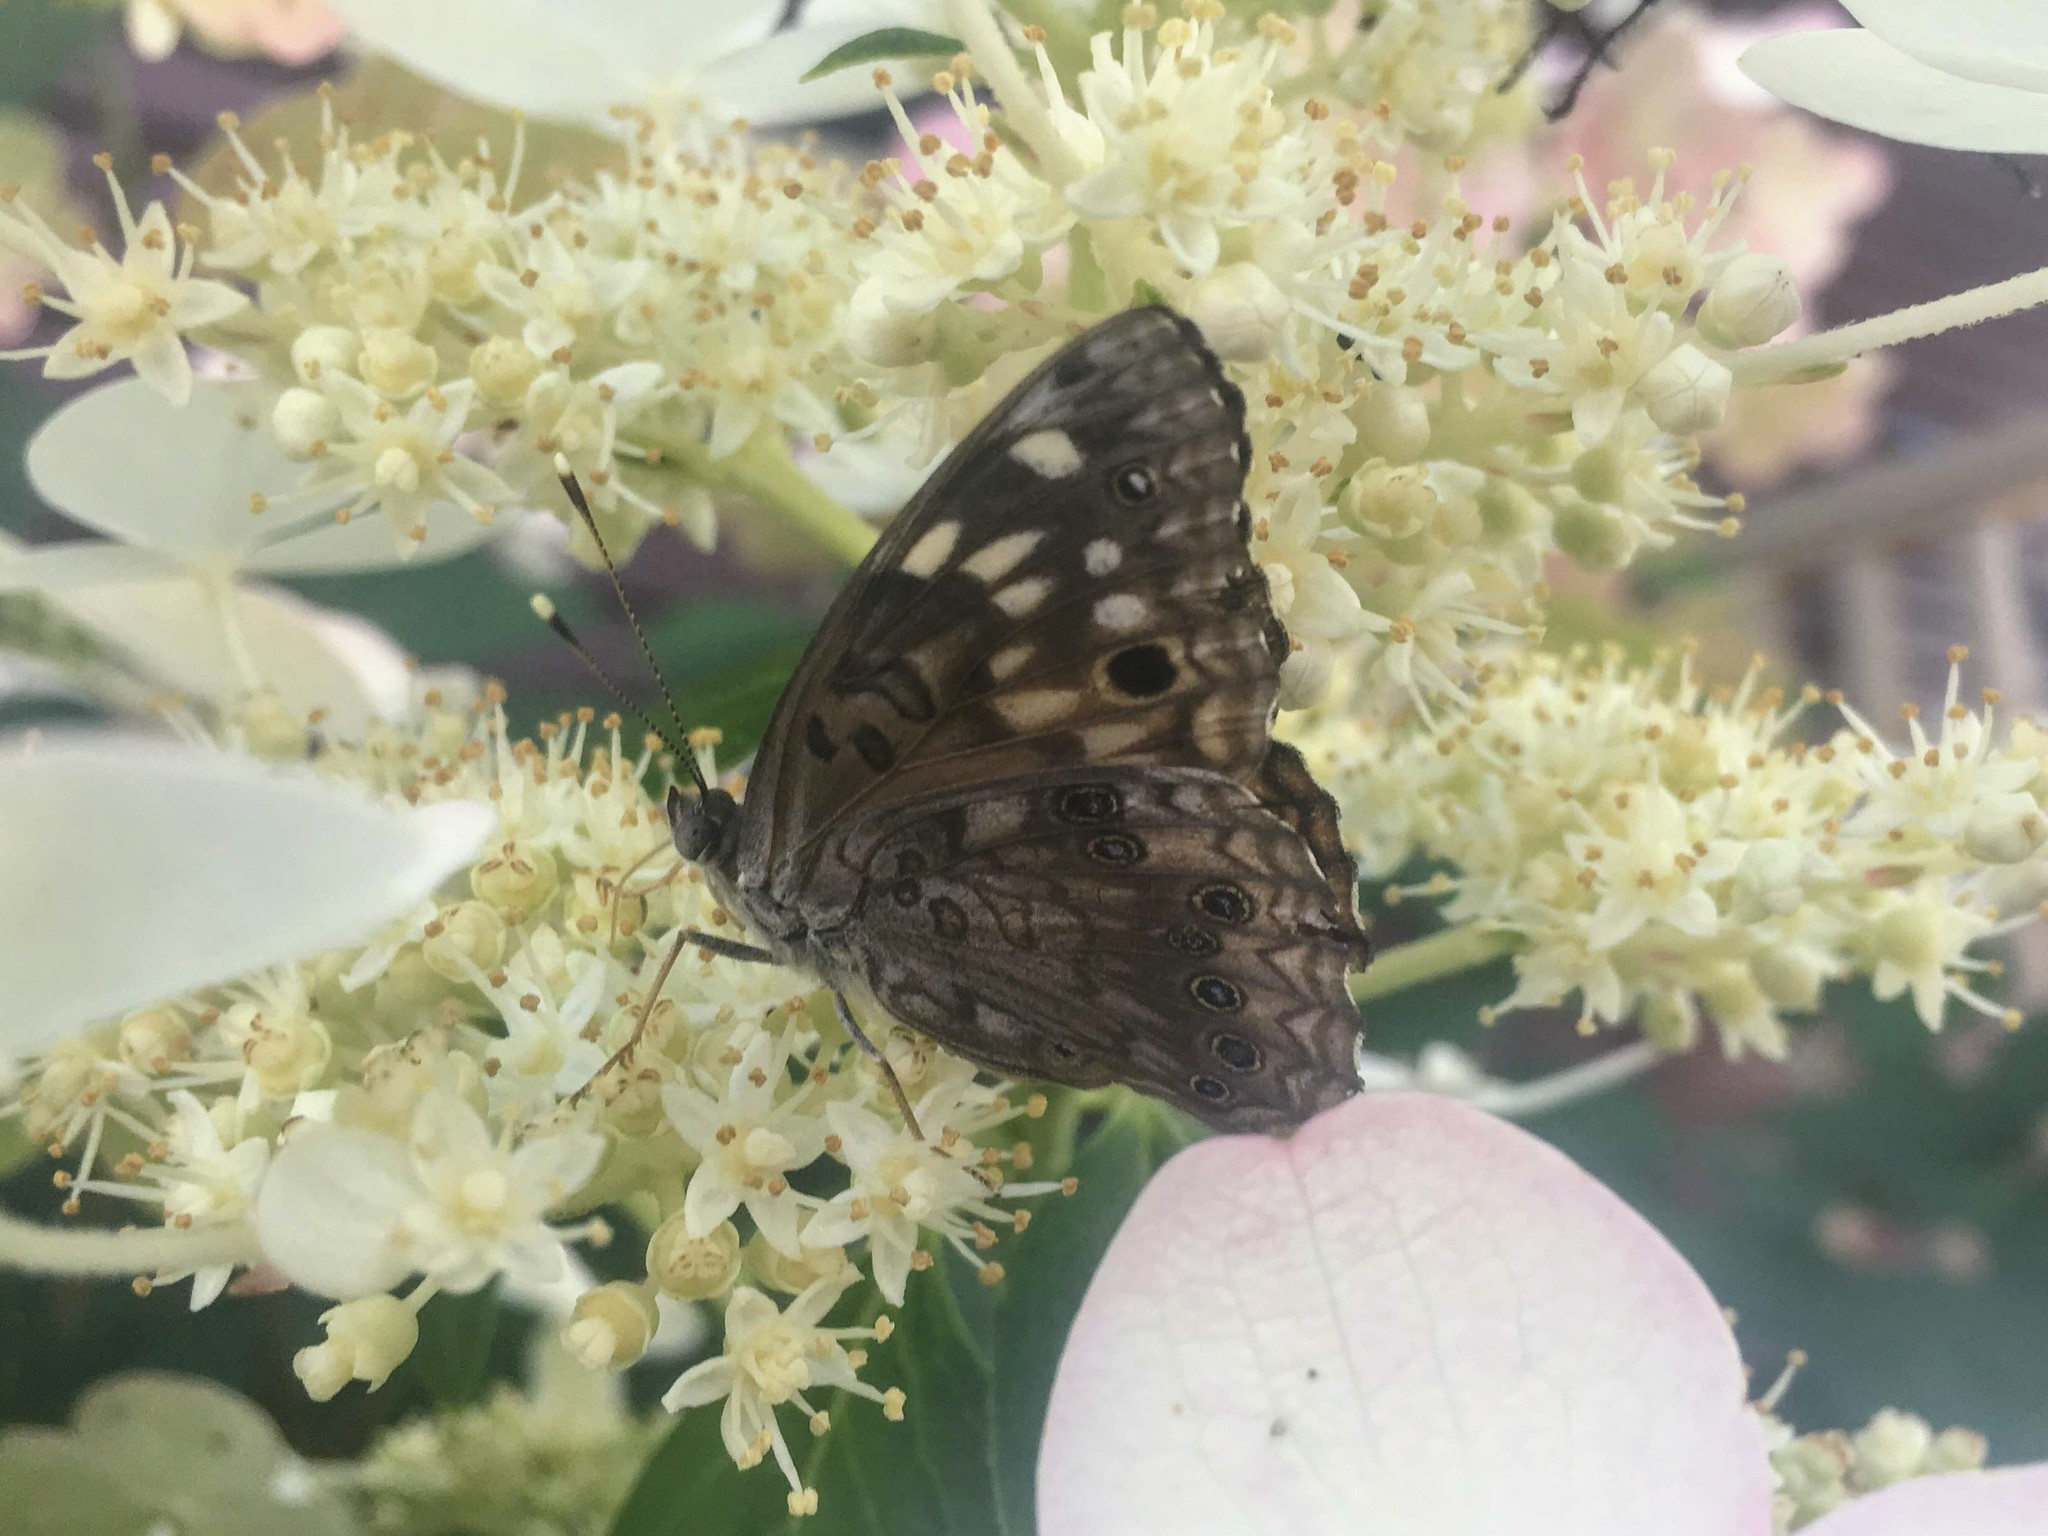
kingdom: Animalia
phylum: Arthropoda
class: Insecta
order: Lepidoptera
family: Nymphalidae
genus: Asterocampa
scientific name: Asterocampa celtis
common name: Hackberry emperor
